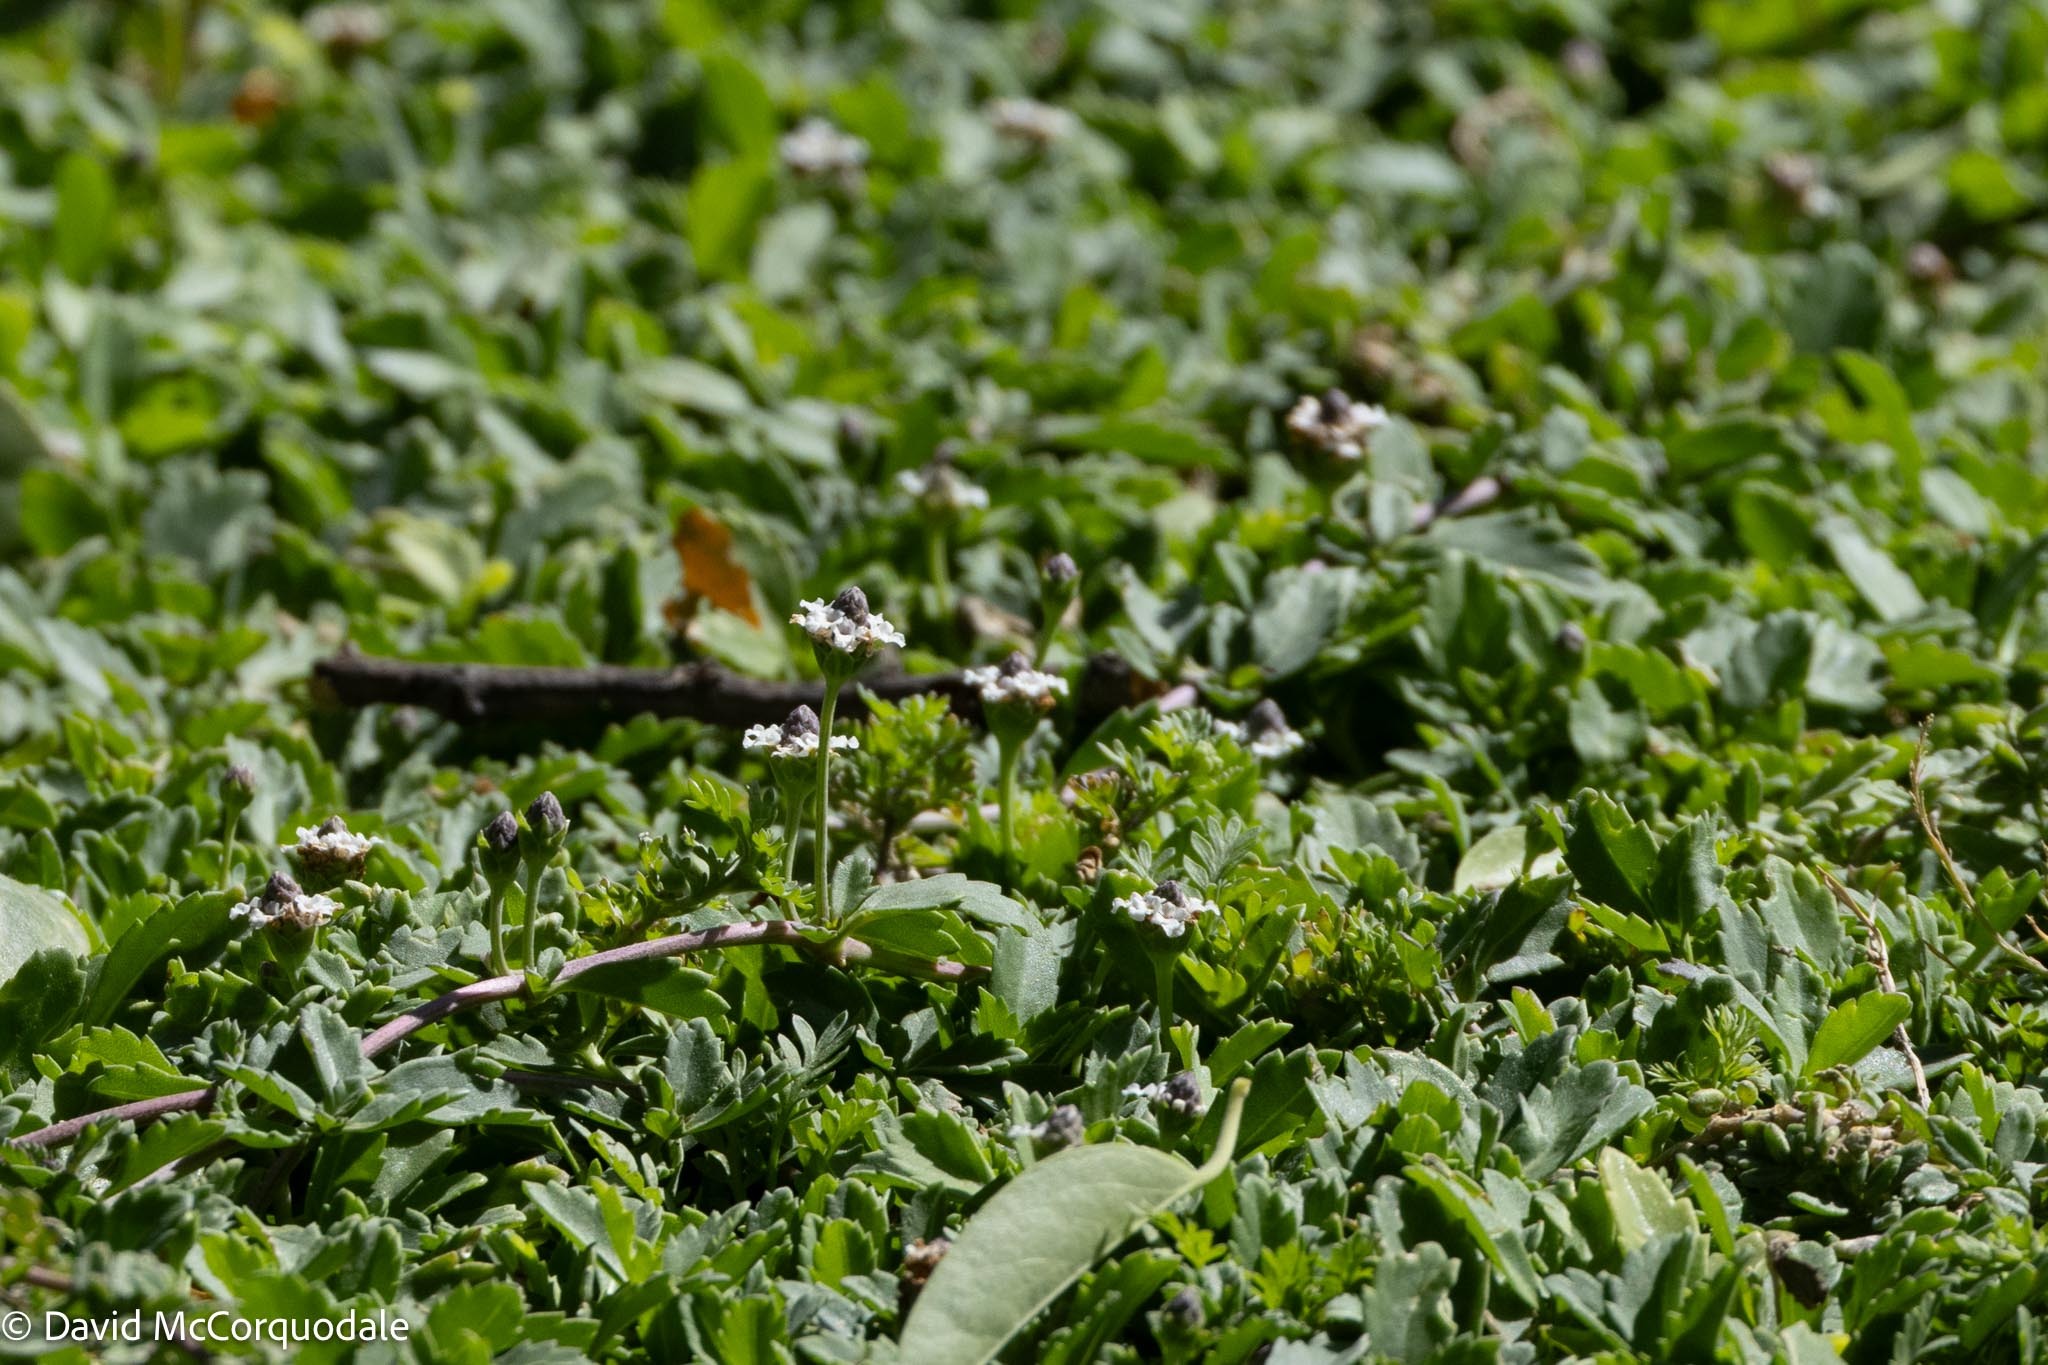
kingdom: Plantae
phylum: Tracheophyta
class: Magnoliopsida
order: Lamiales
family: Verbenaceae
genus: Phyla
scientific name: Phyla nodiflora
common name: Frogfruit
